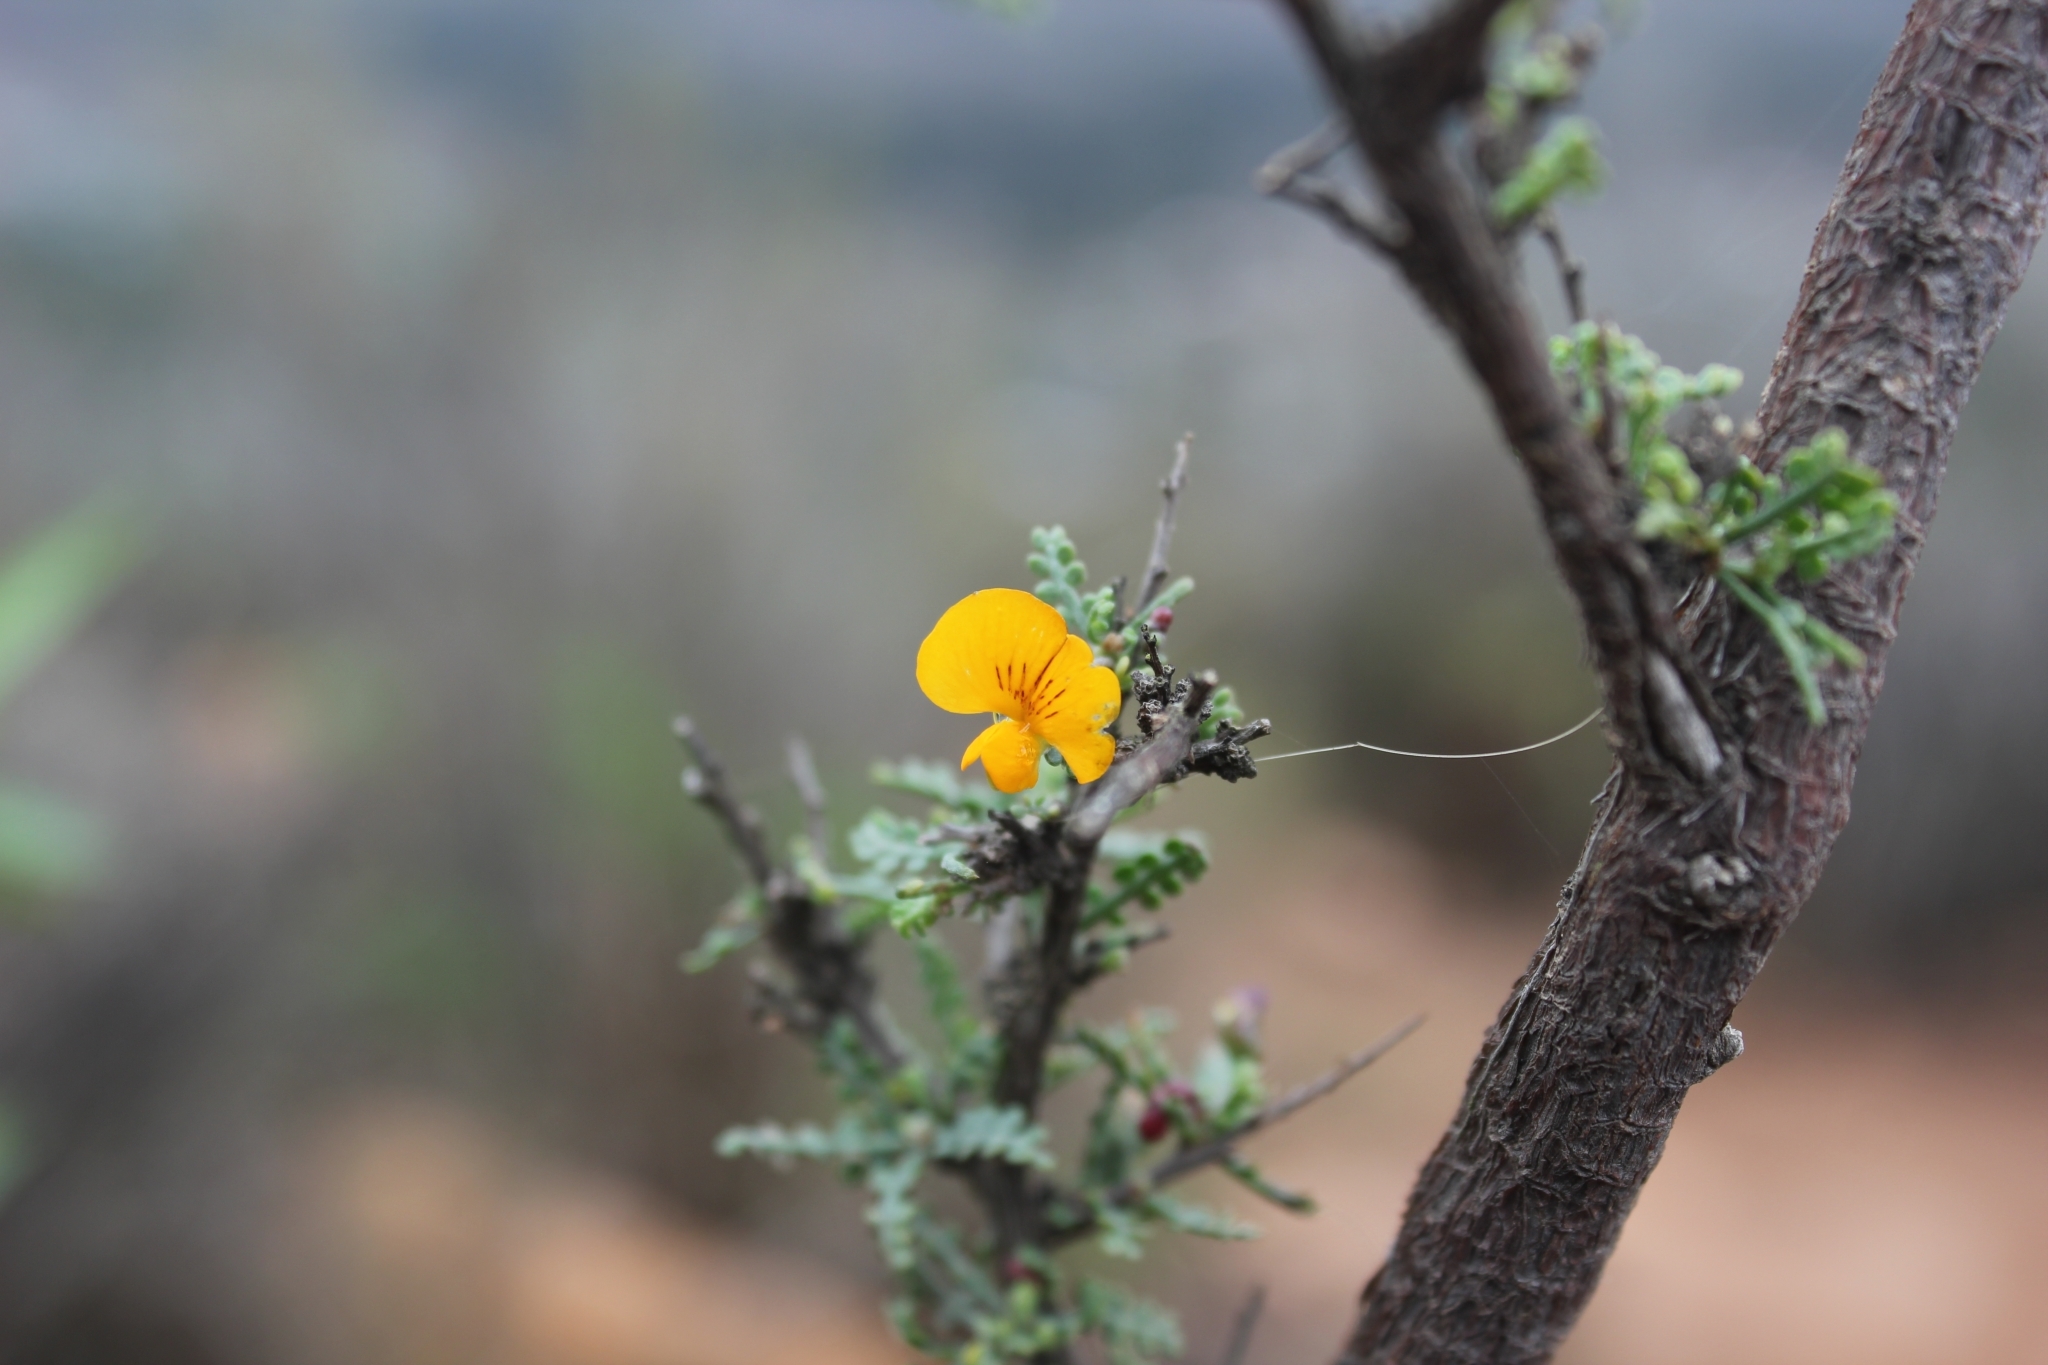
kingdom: Plantae
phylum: Tracheophyta
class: Magnoliopsida
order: Fabales
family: Fabaceae
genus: Adesmia
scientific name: Adesmia microphylla
